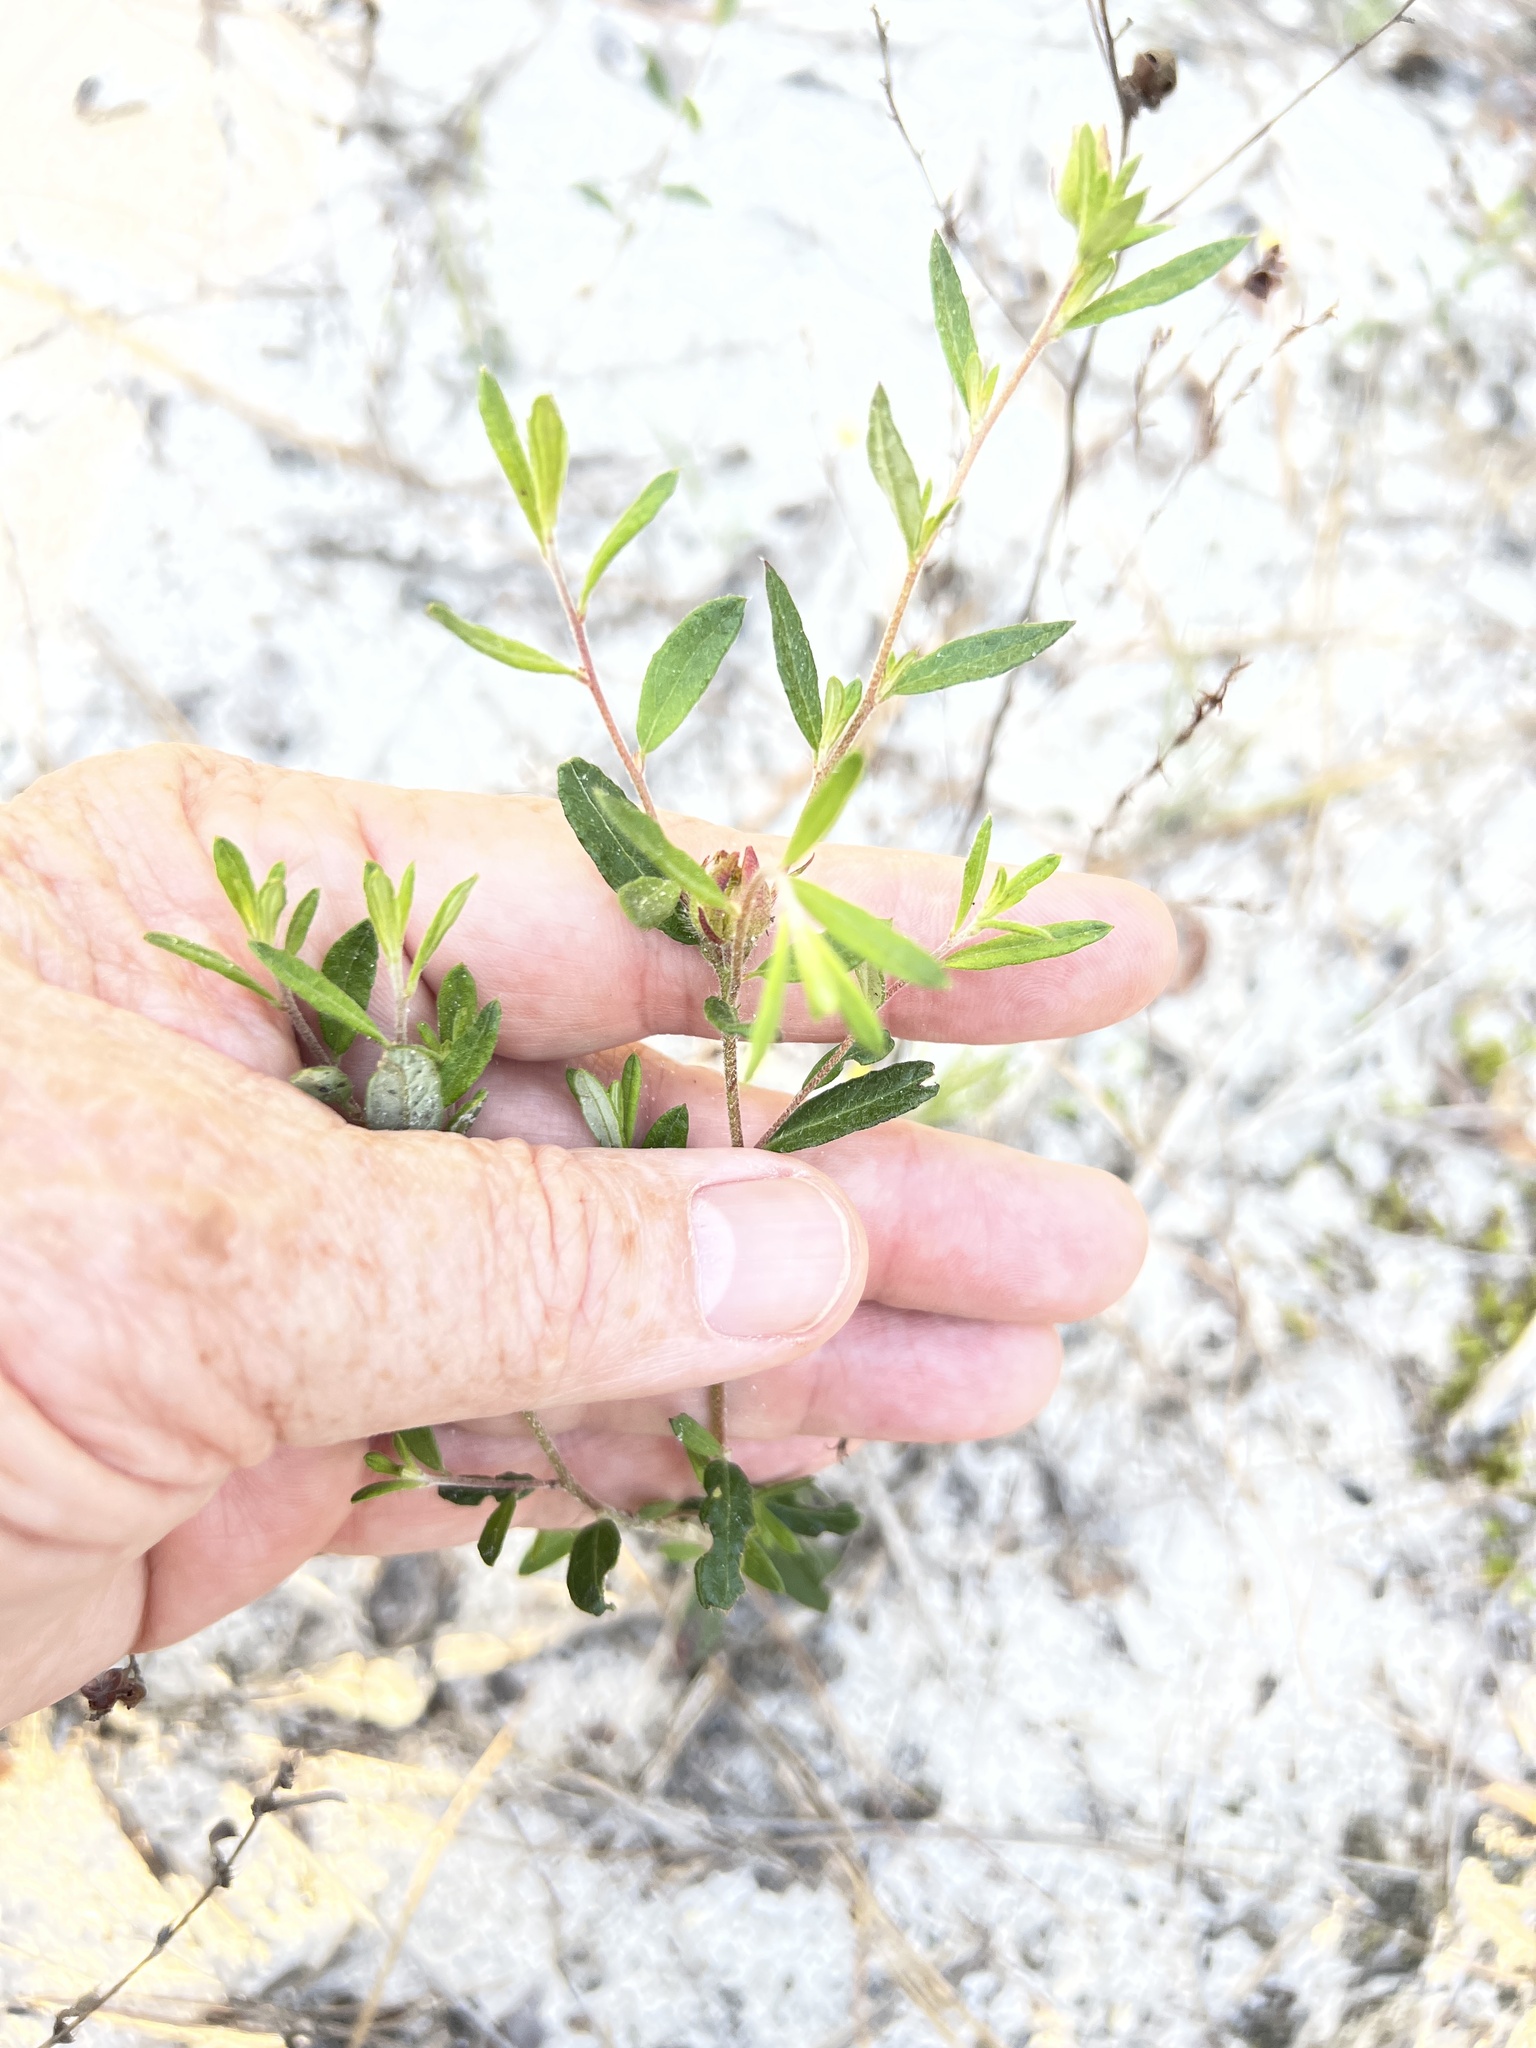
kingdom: Plantae
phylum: Tracheophyta
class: Magnoliopsida
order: Malvales
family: Cistaceae
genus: Crocanthemum
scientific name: Crocanthemum canadense
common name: Canada frostweed
